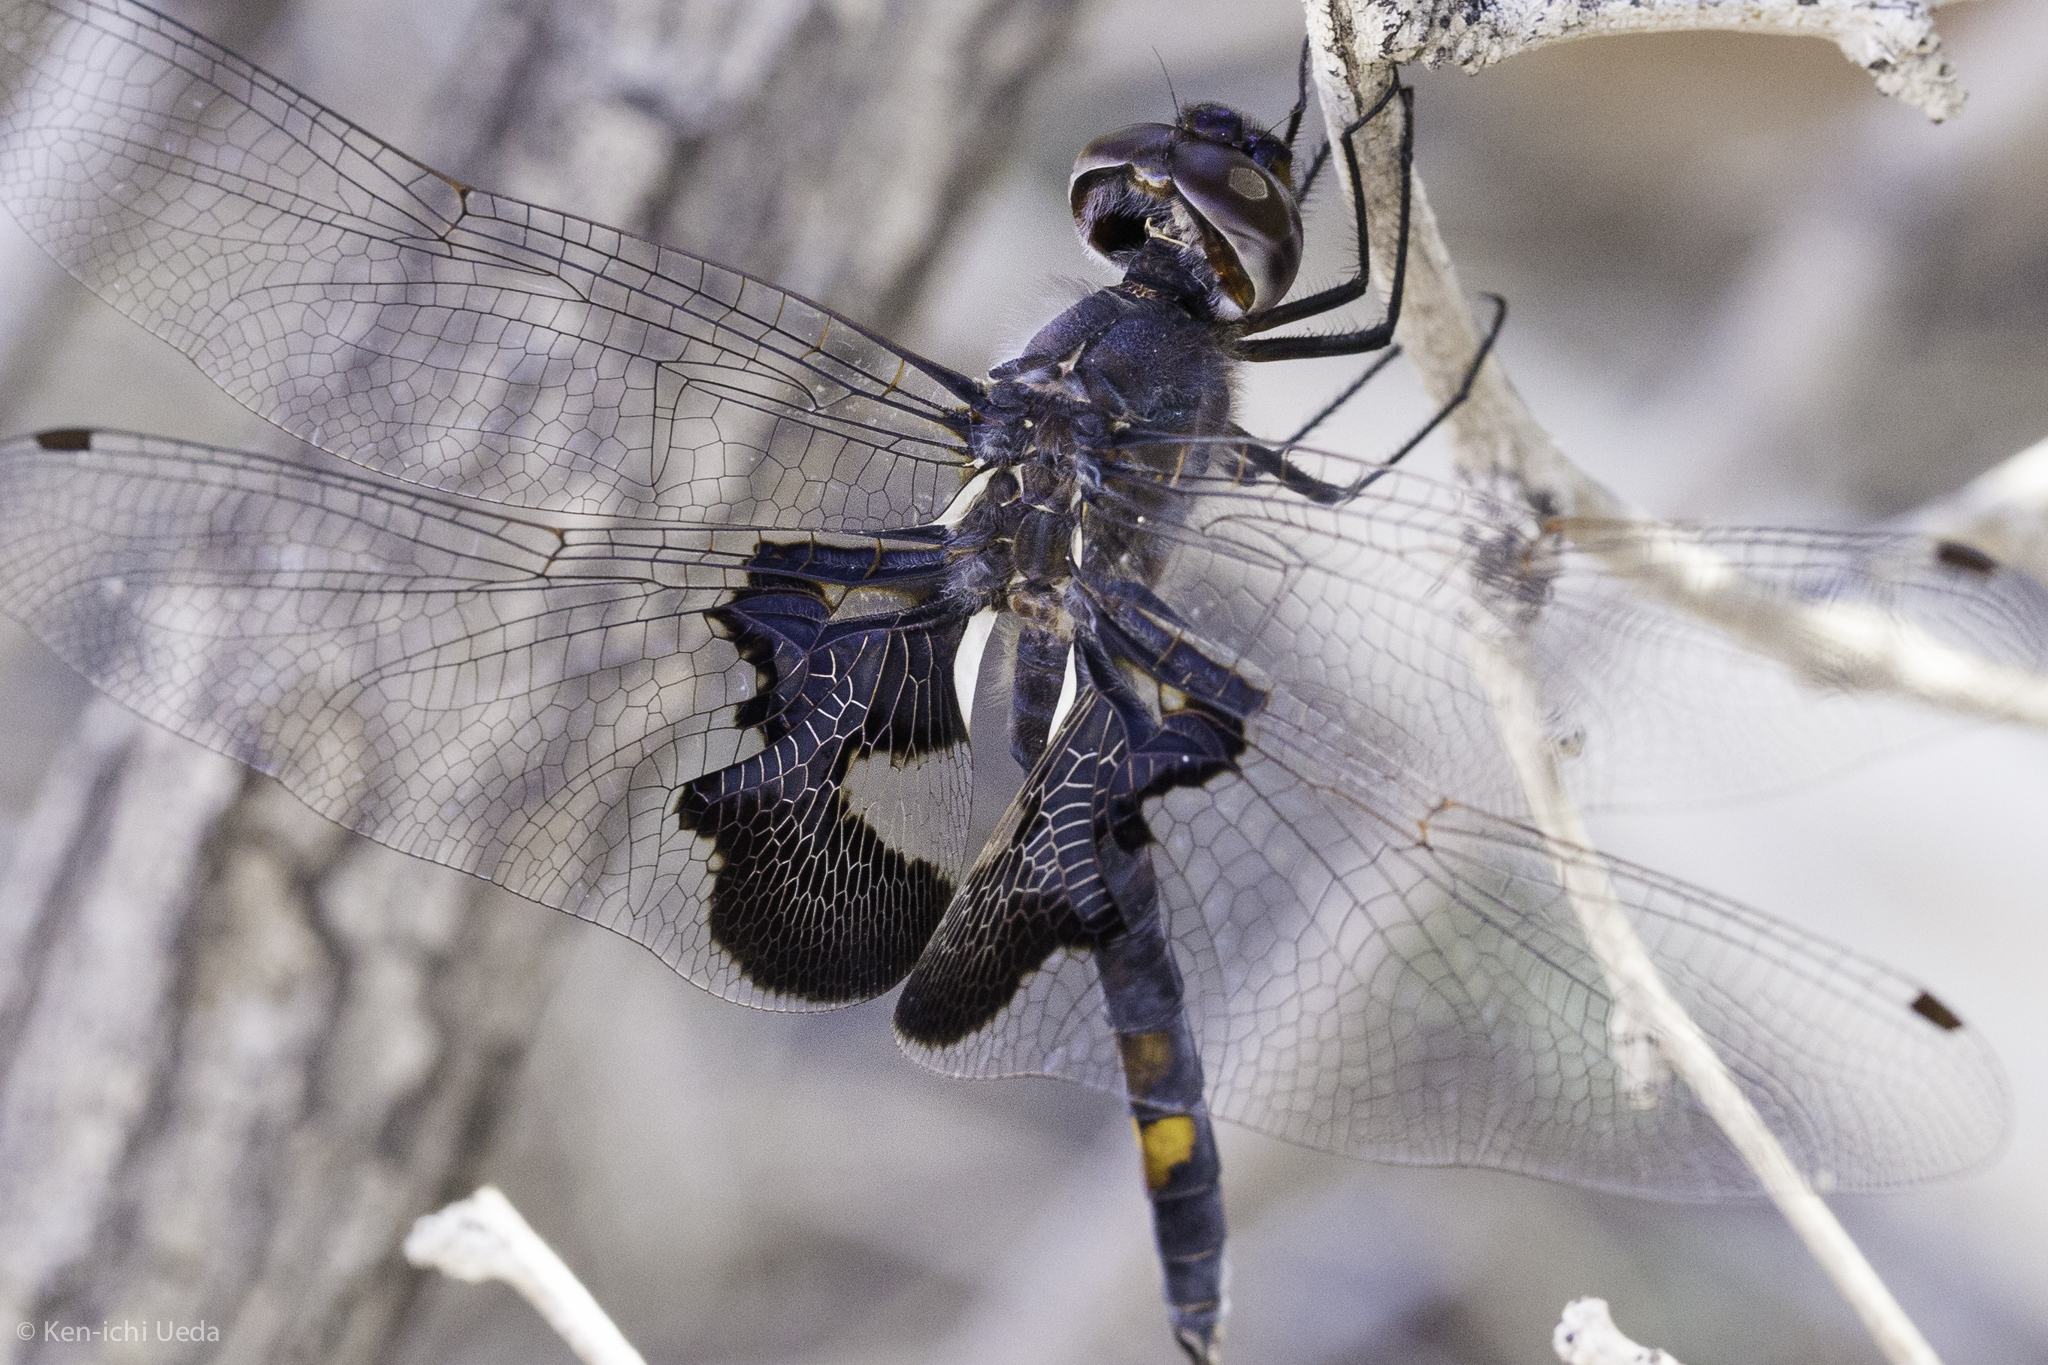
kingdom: Animalia
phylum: Arthropoda
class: Insecta
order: Odonata
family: Libellulidae
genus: Tramea
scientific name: Tramea lacerata
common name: Black saddlebags
